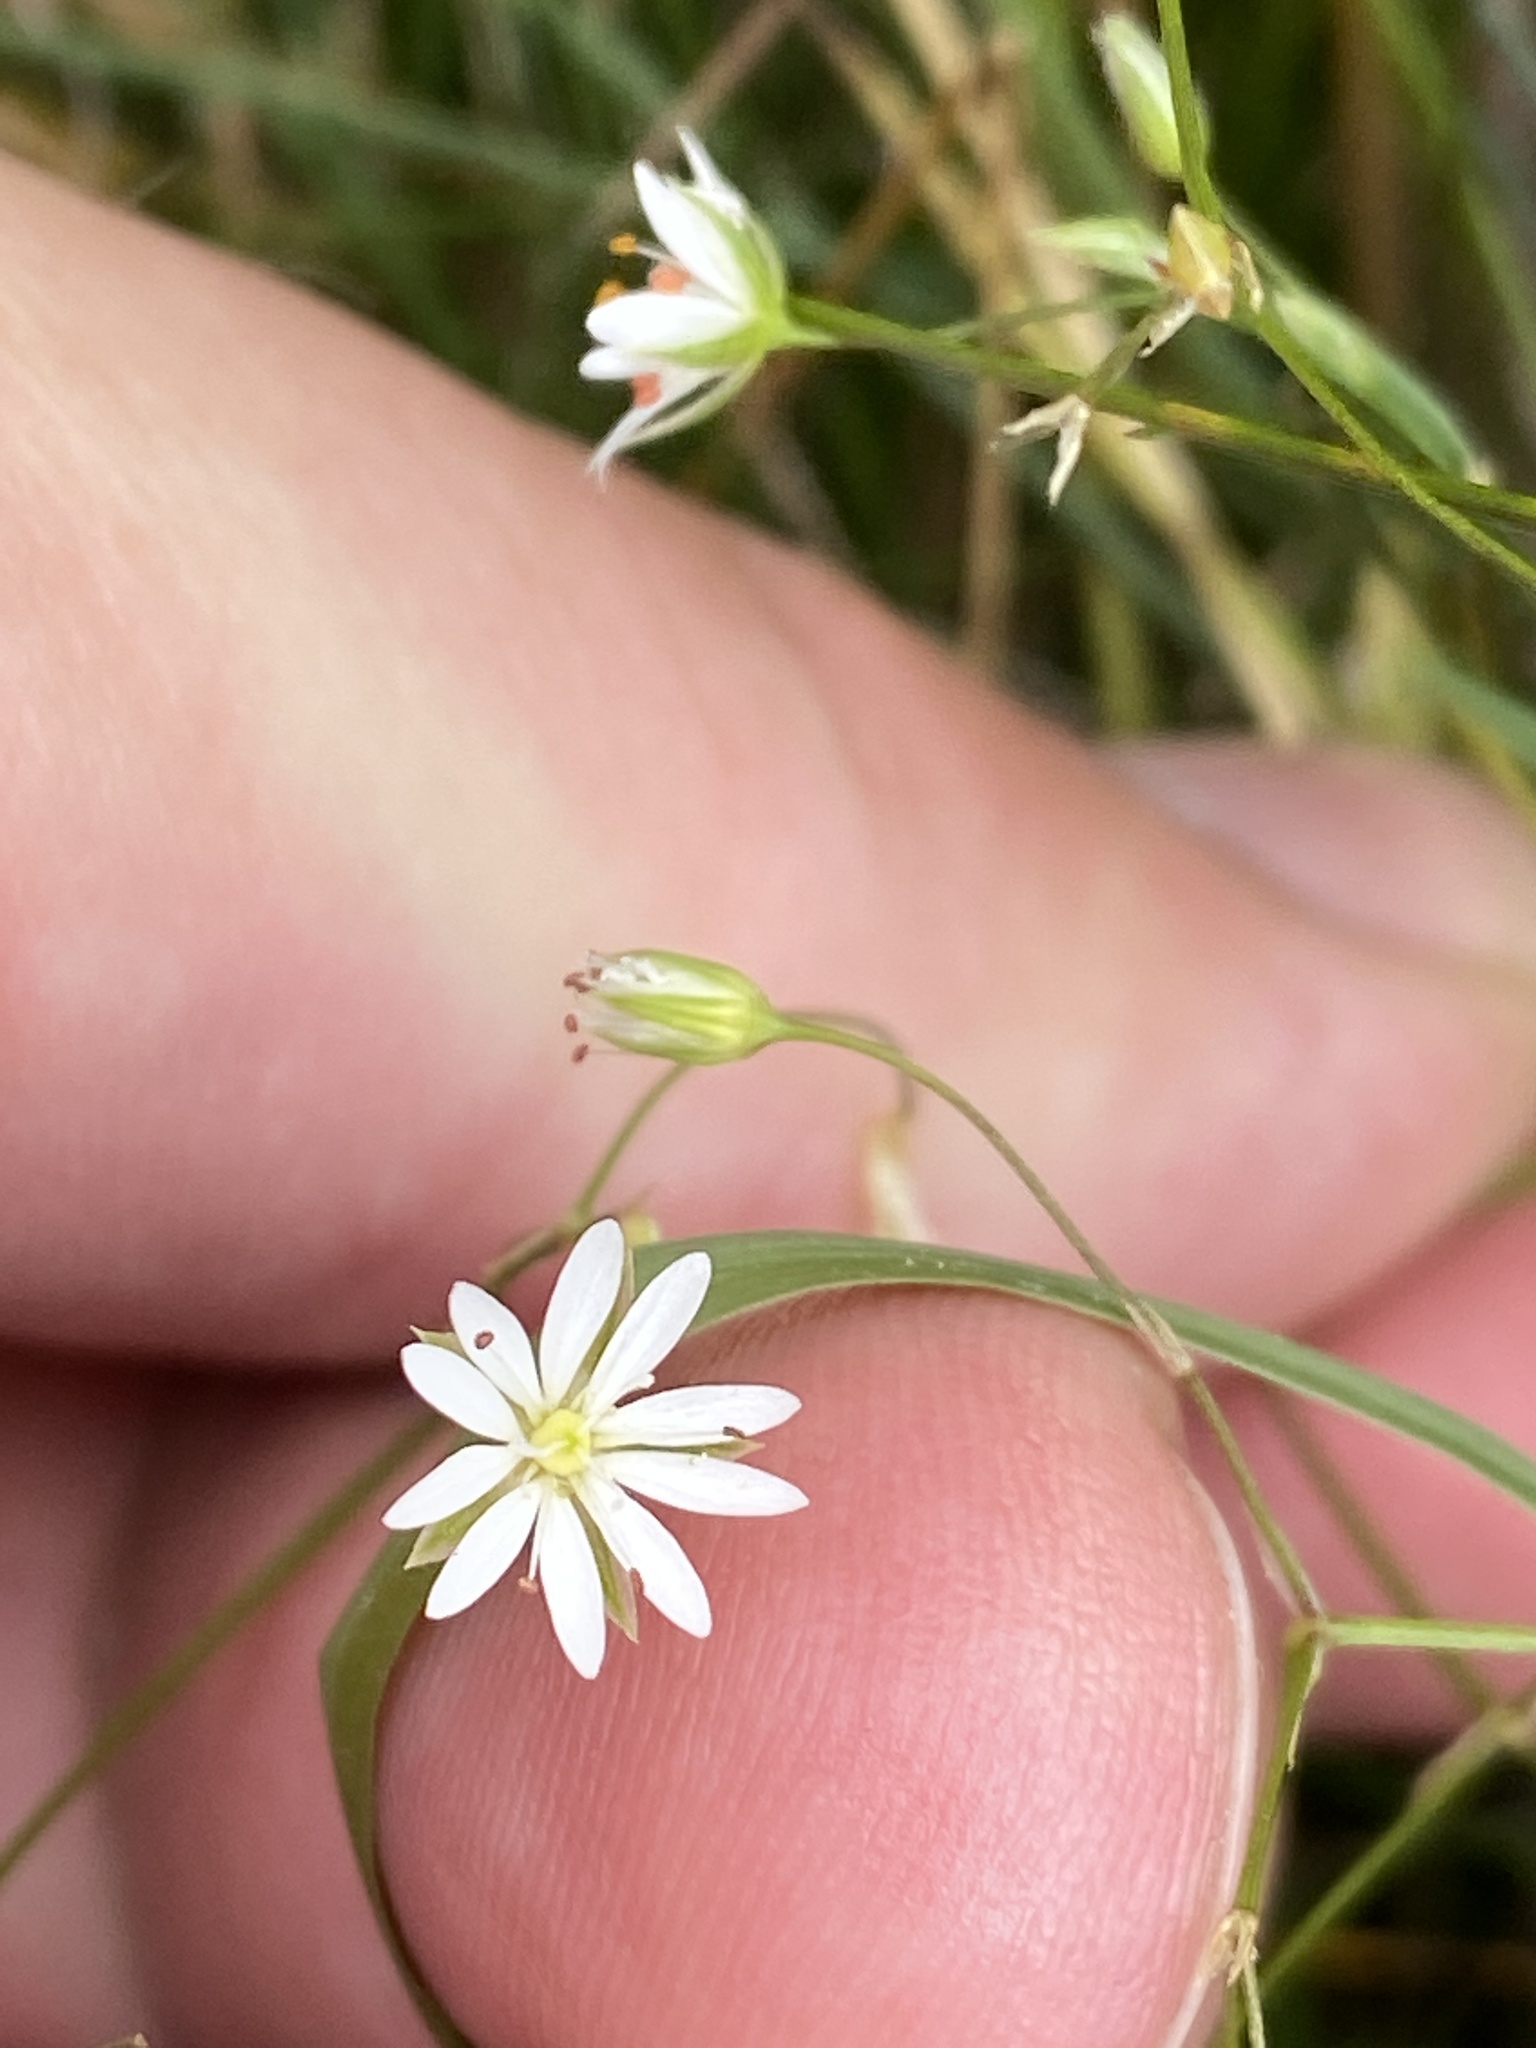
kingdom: Plantae
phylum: Tracheophyta
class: Magnoliopsida
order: Caryophyllales
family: Caryophyllaceae
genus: Stellaria
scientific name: Stellaria graminea
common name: Grass-like starwort
